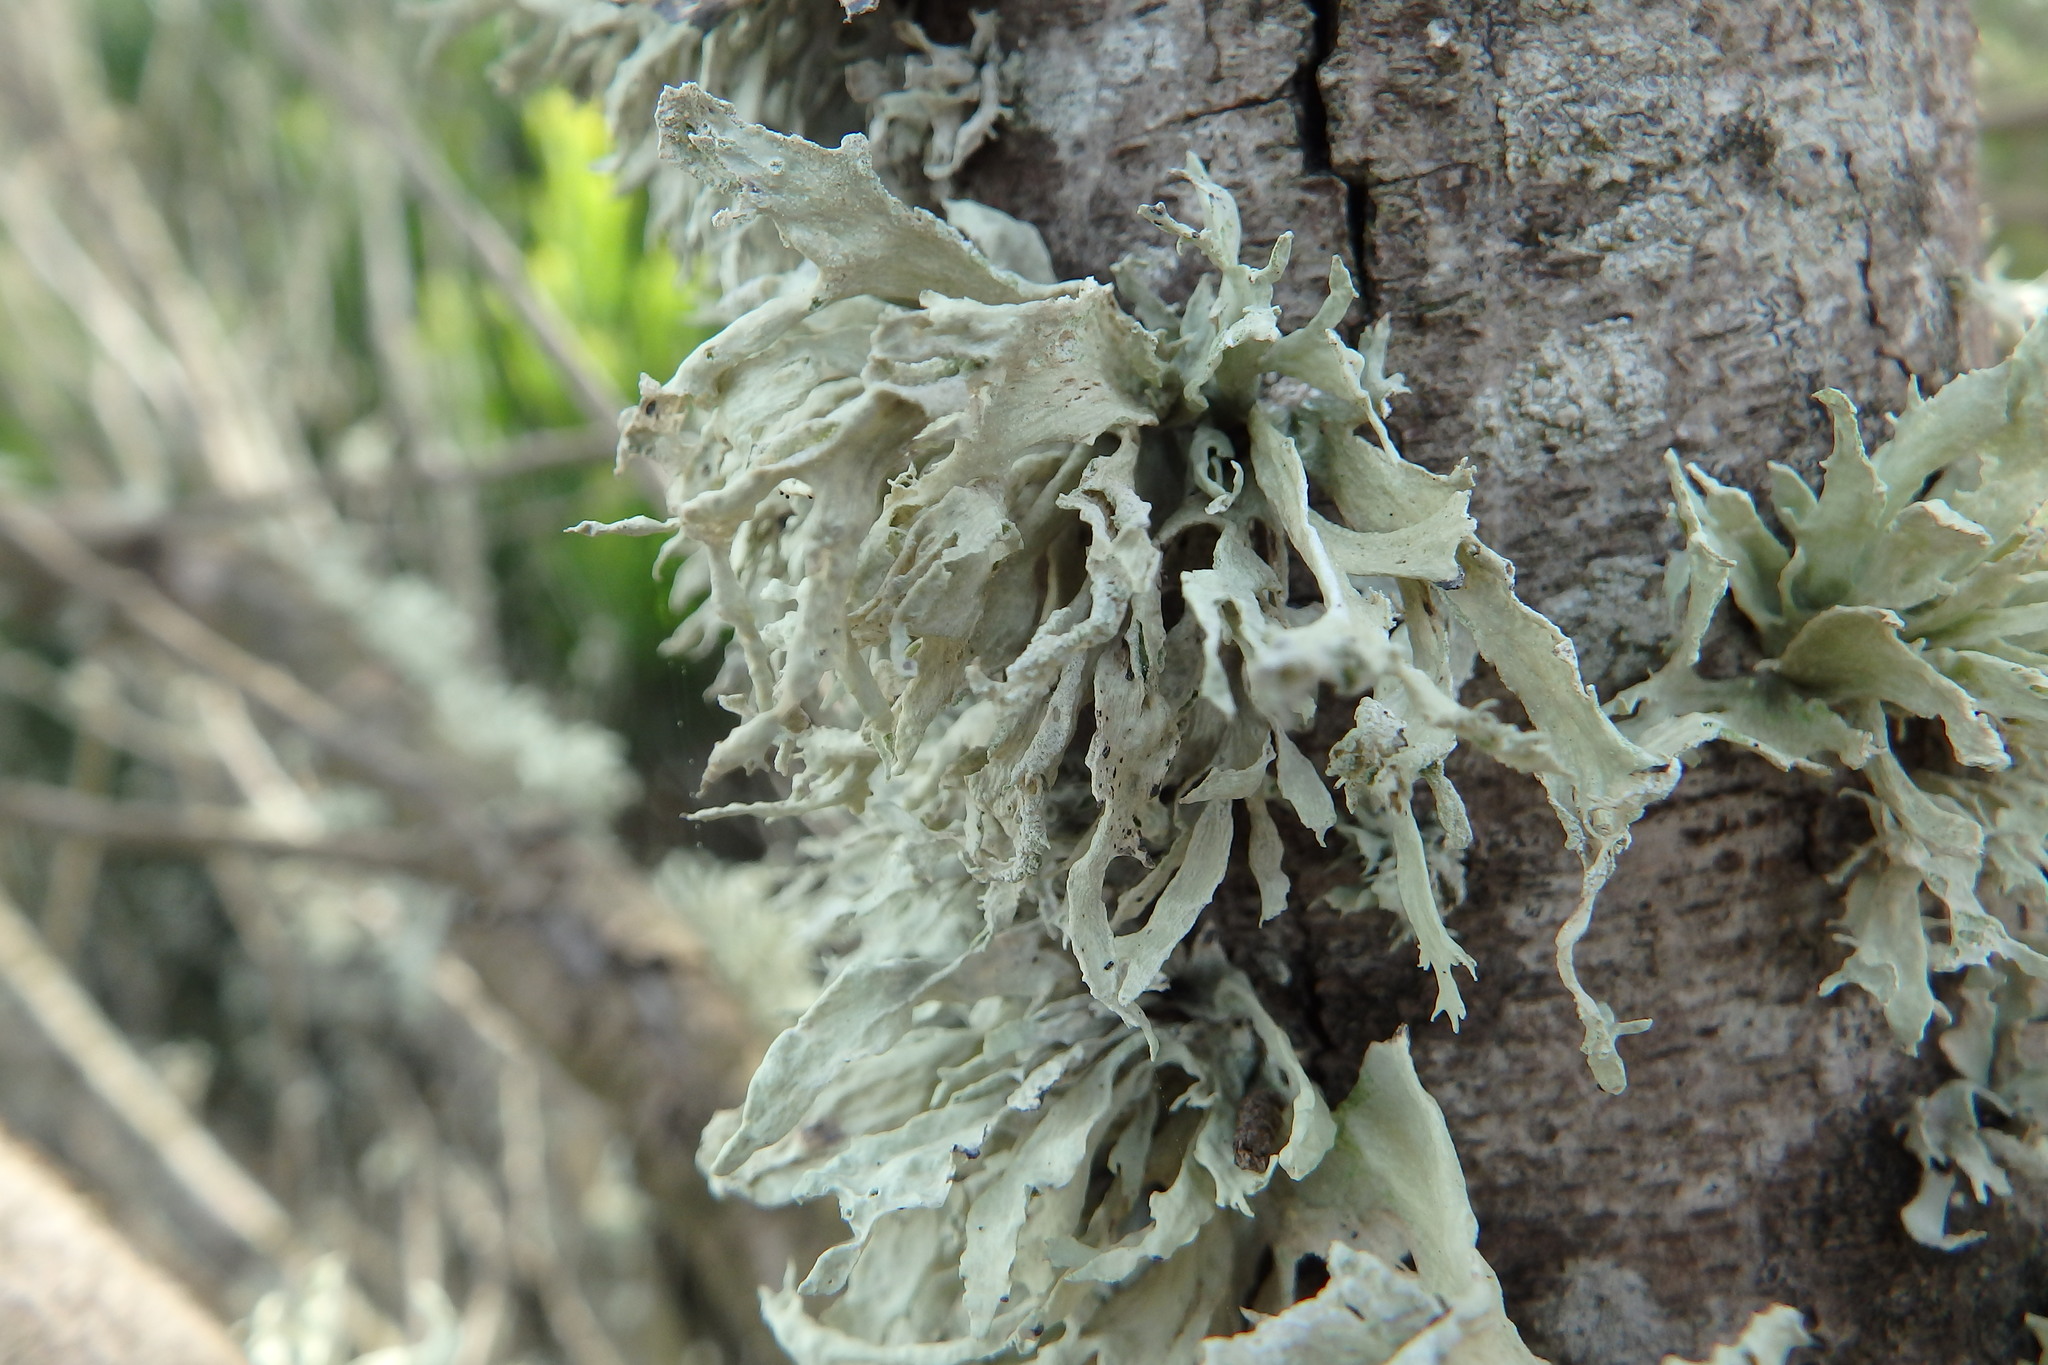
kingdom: Fungi
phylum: Ascomycota
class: Lecanoromycetes
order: Lecanorales
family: Ramalinaceae
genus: Ramalina
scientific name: Ramalina canariensis
